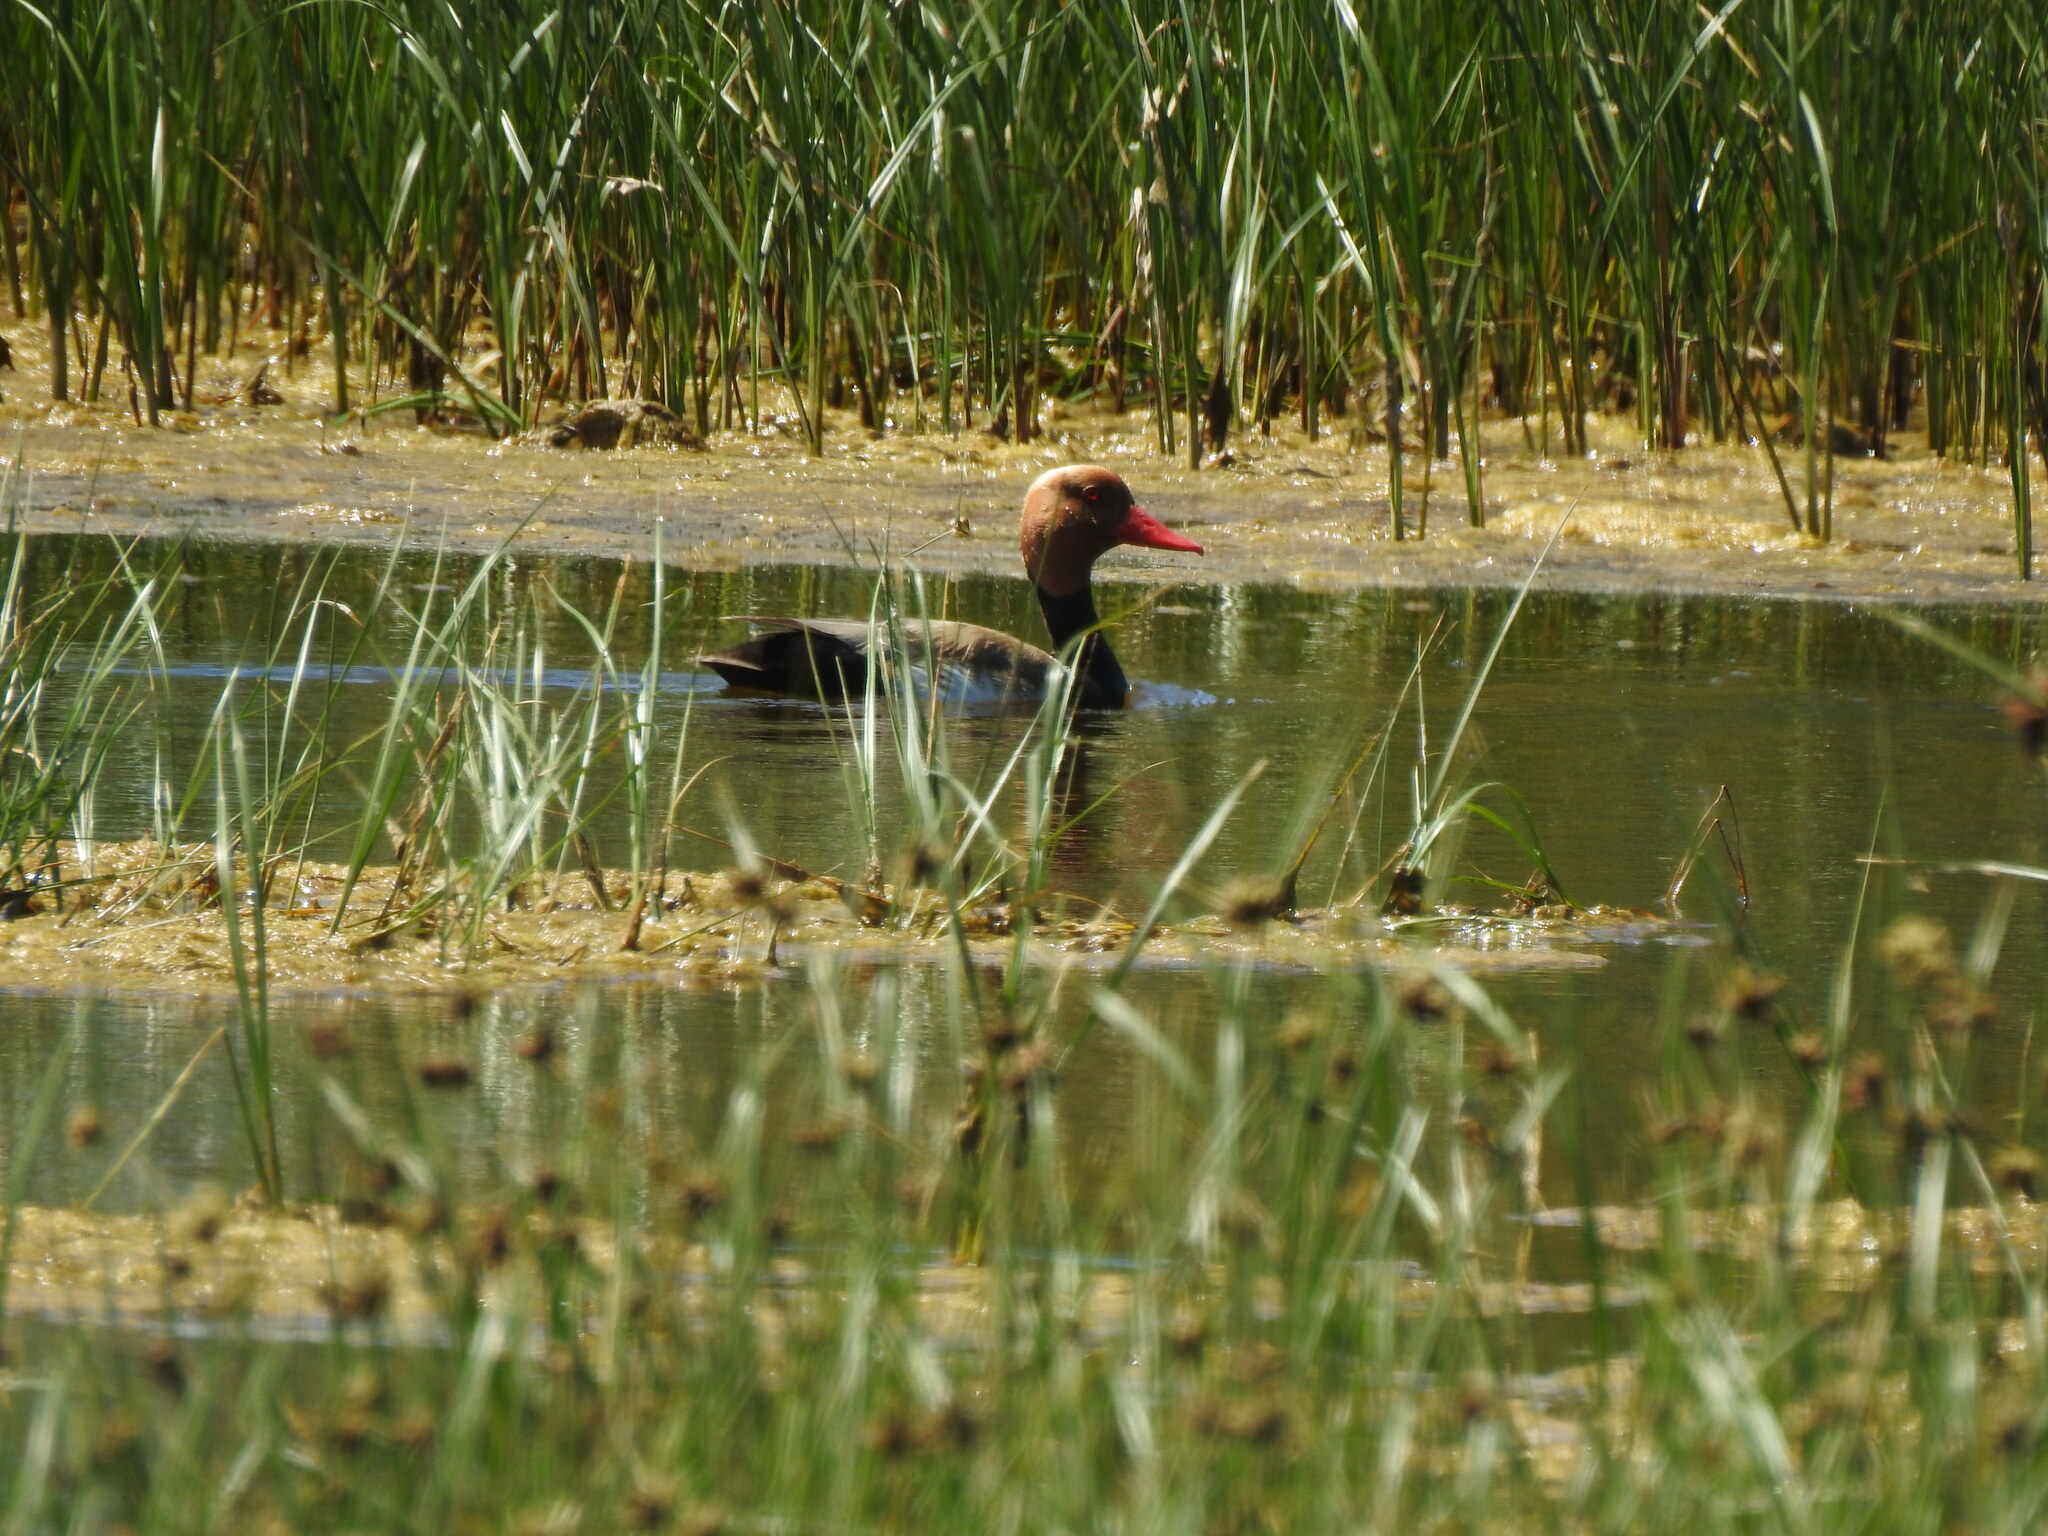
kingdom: Animalia
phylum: Chordata
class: Aves
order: Anseriformes
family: Anatidae
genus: Netta
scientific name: Netta rufina
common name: Red-crested pochard
